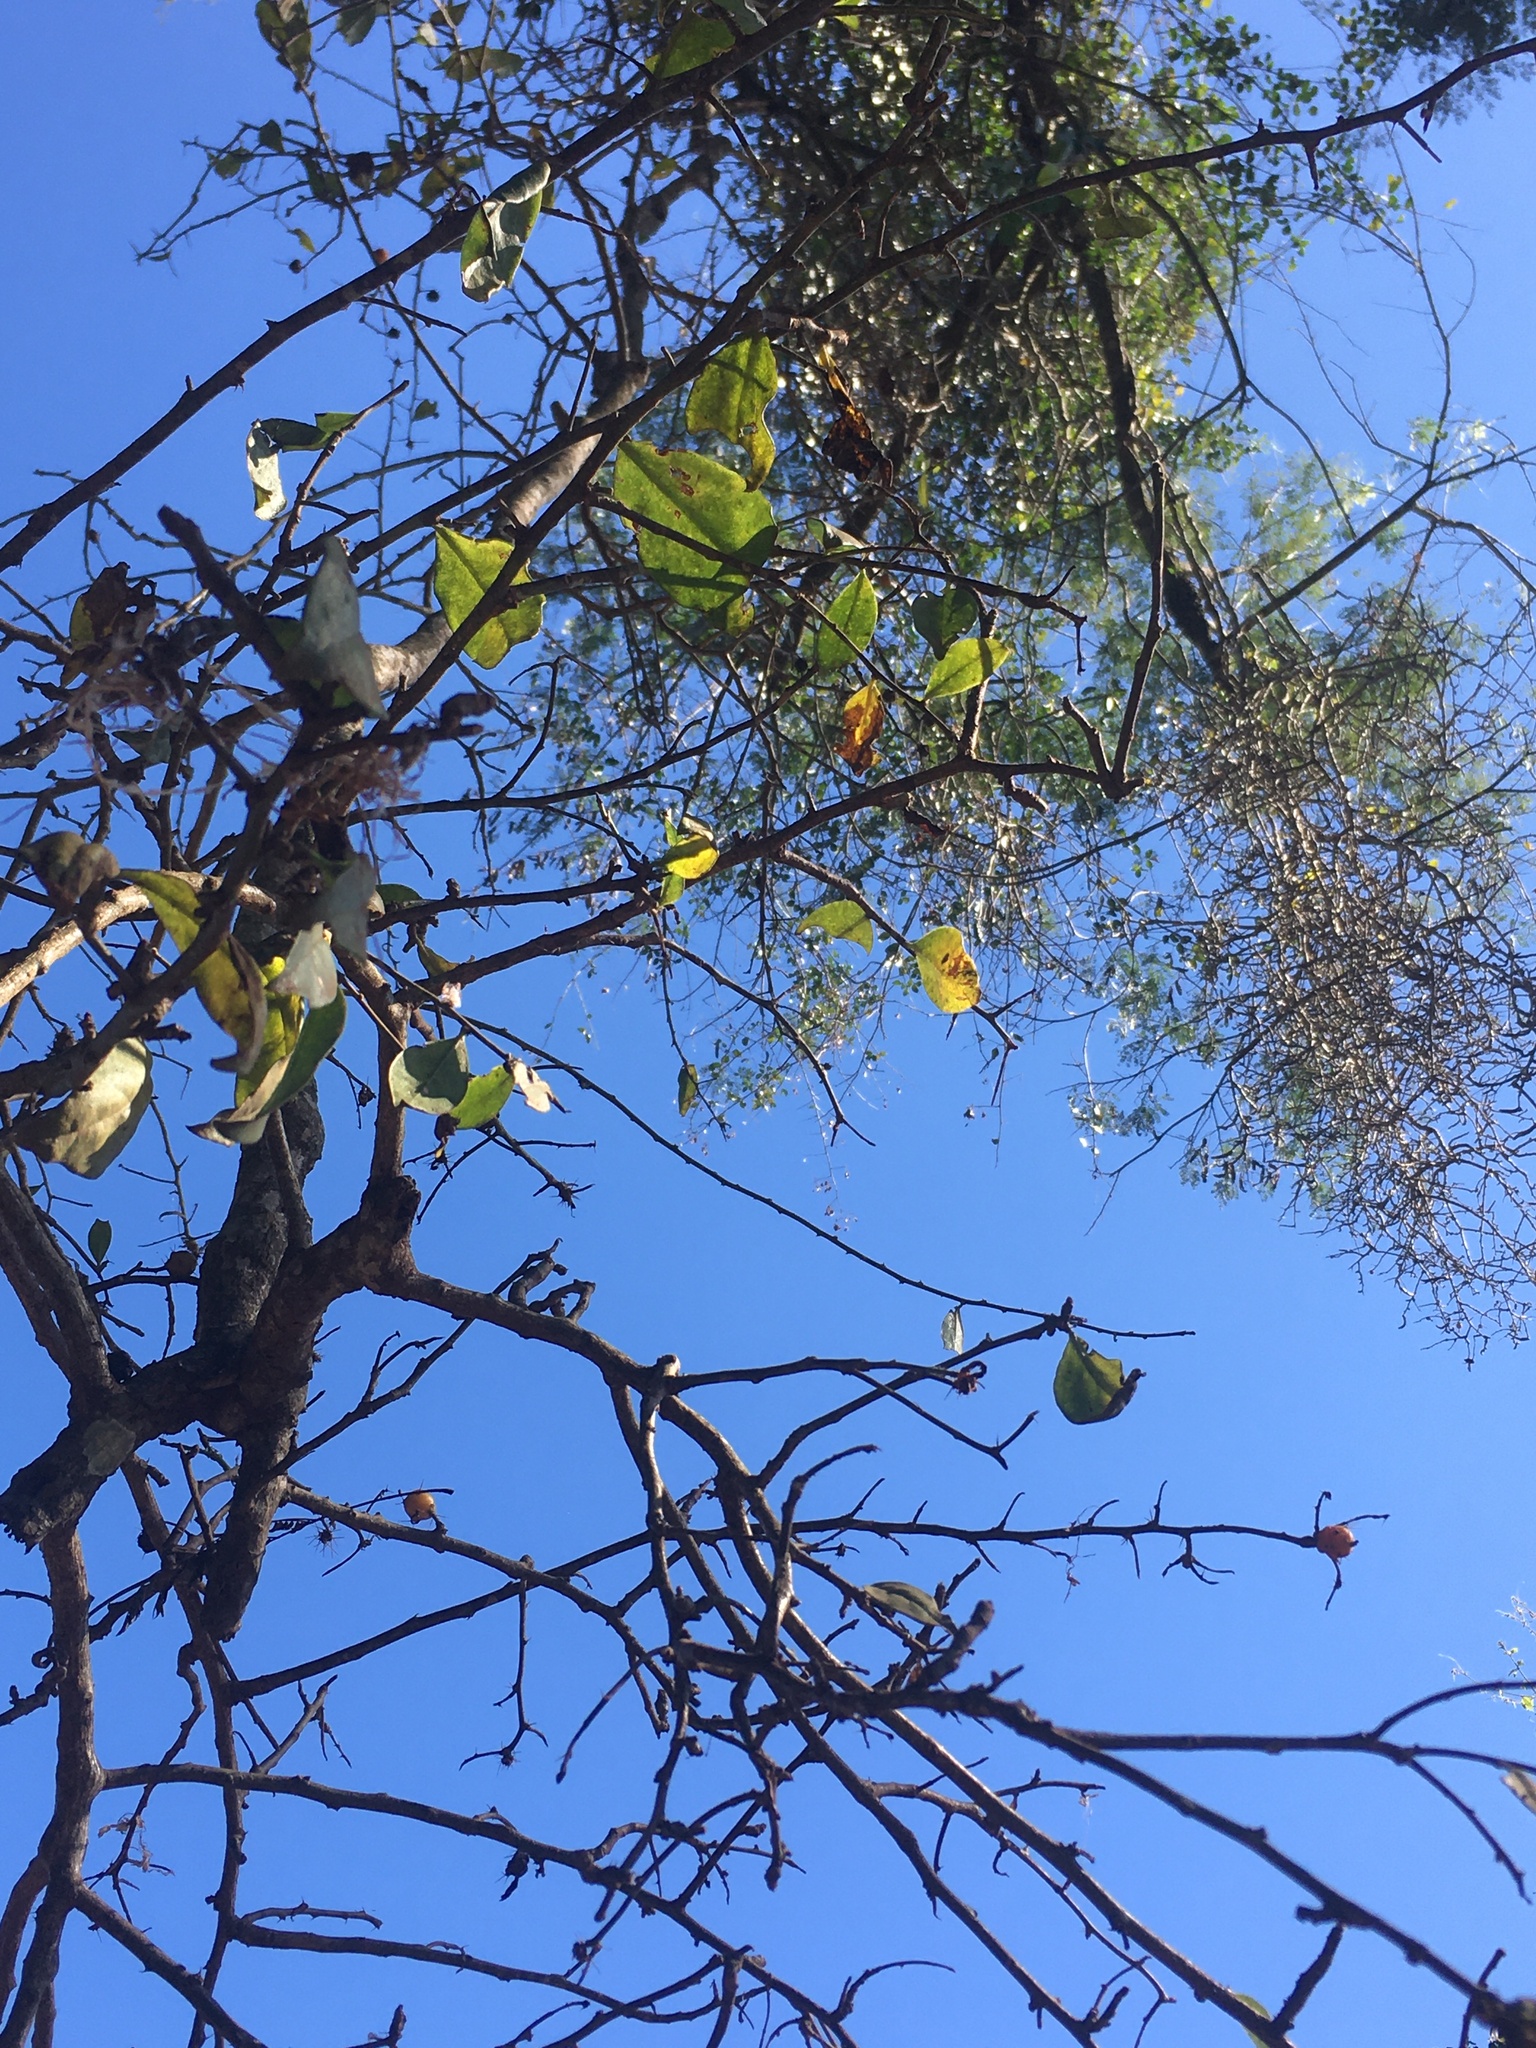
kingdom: Plantae
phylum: Tracheophyta
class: Magnoliopsida
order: Caryophyllales
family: Cactaceae
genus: Pereskia
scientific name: Pereskia aculeata
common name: Barbados gooseberry
